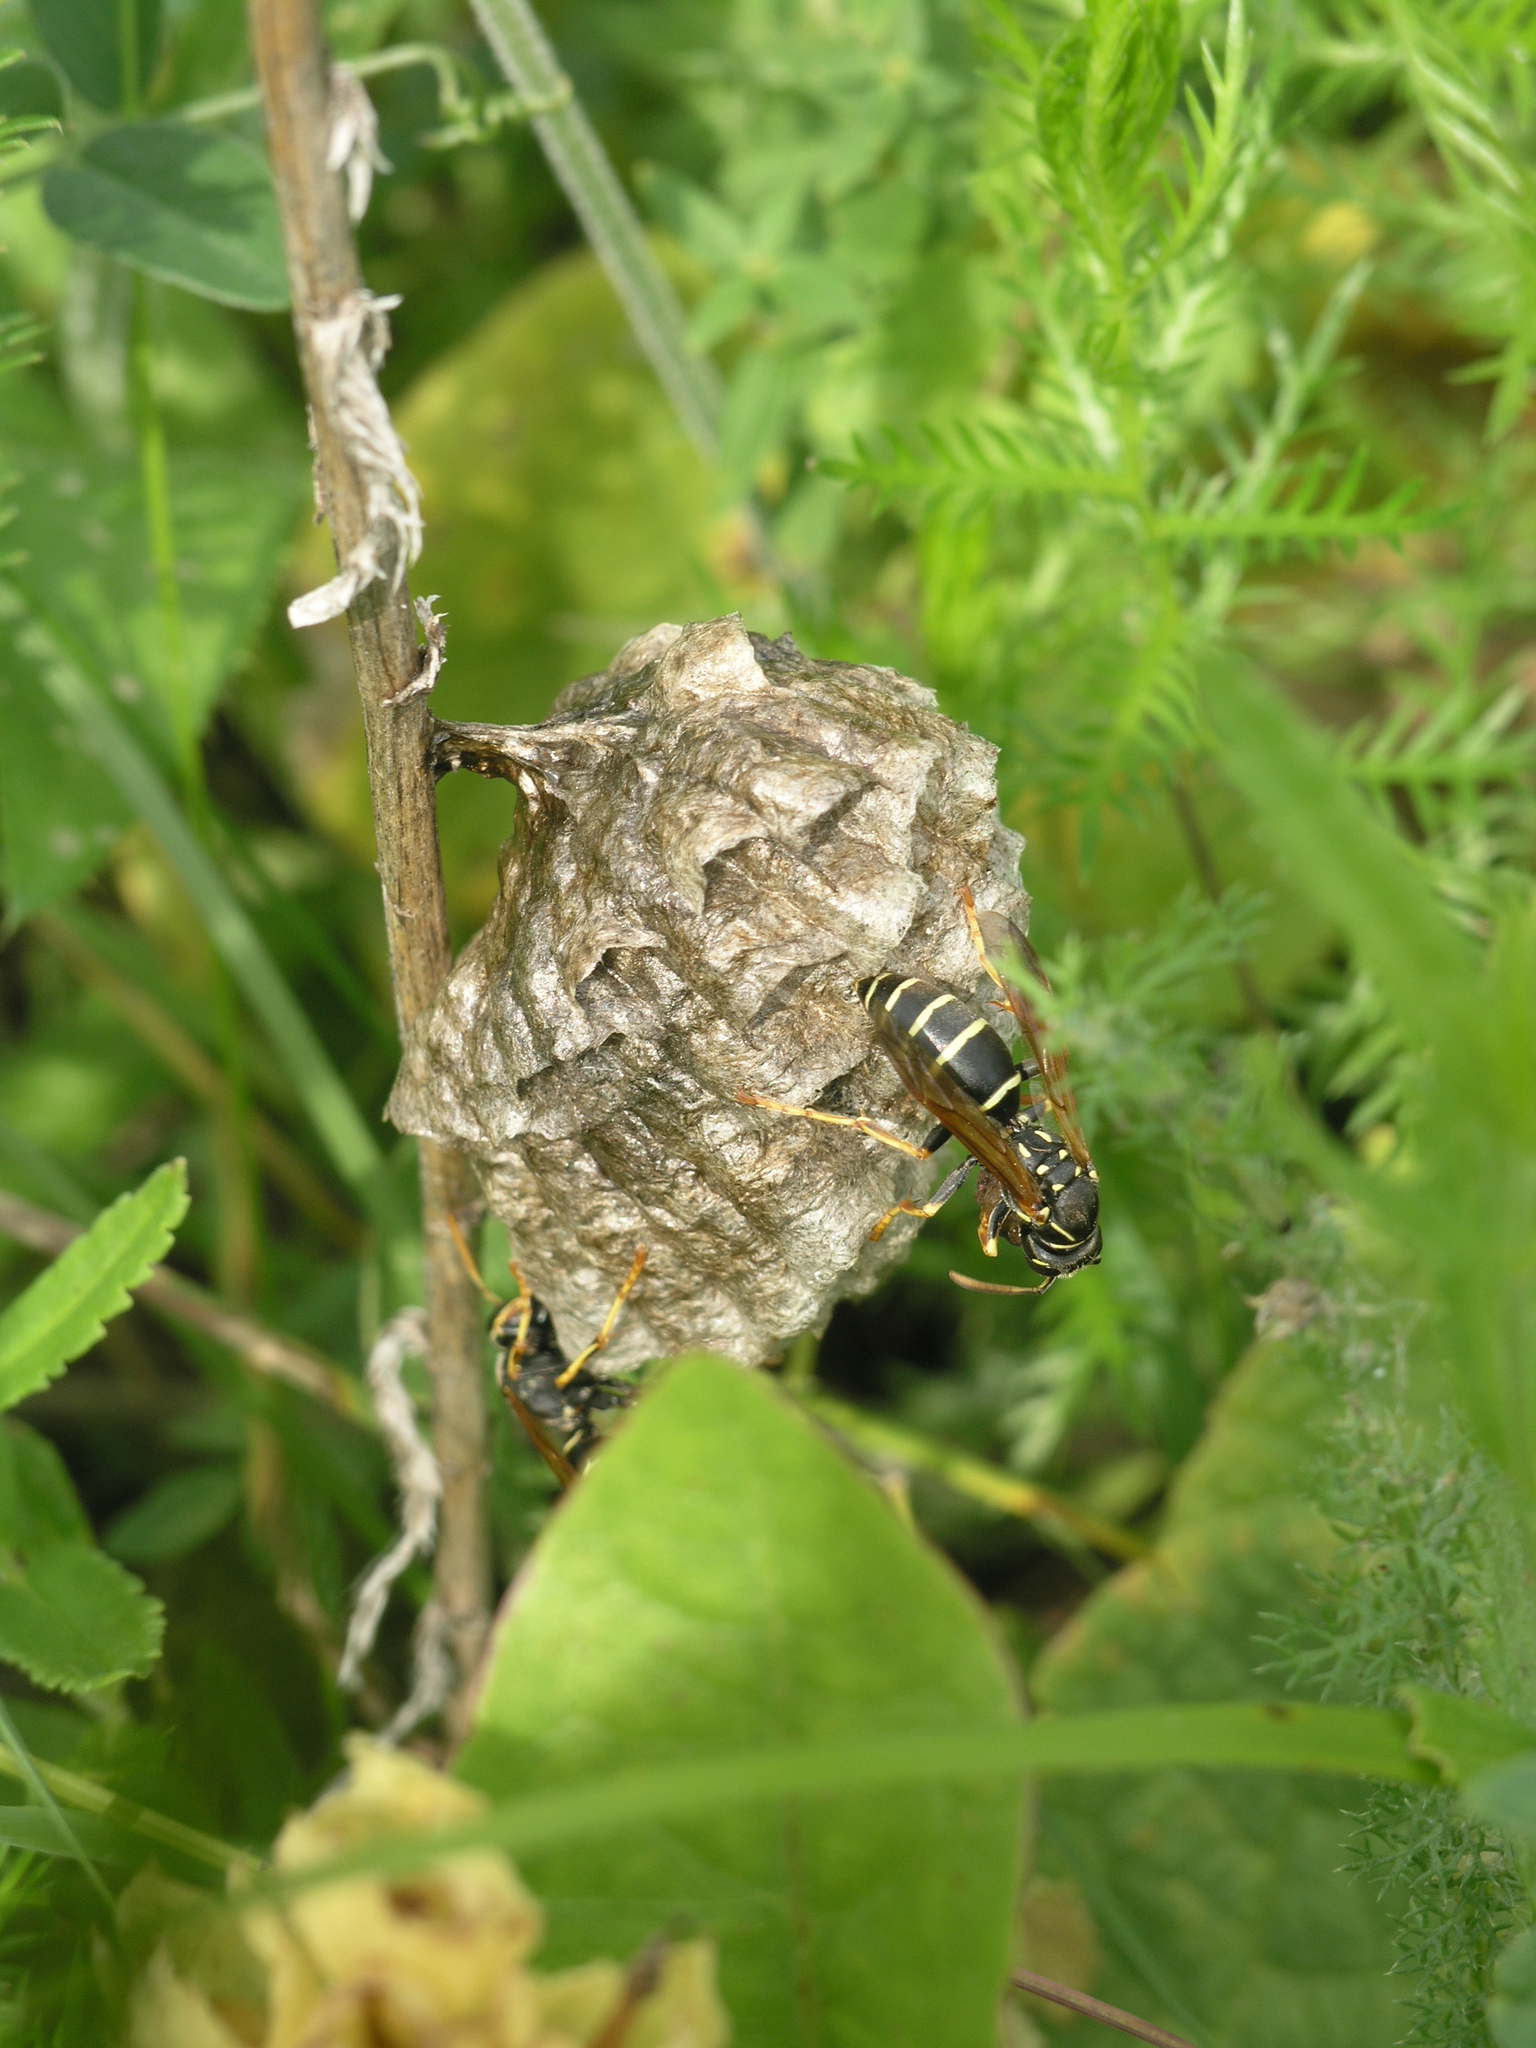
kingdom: Animalia
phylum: Arthropoda
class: Insecta
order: Hymenoptera
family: Eumenidae
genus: Polistes
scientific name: Polistes nimpha
